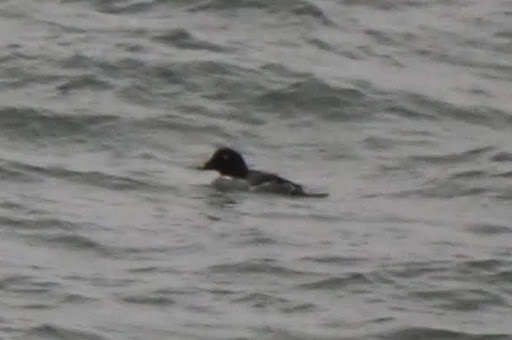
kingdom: Animalia
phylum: Chordata
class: Aves
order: Anseriformes
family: Anatidae
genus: Bucephala
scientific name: Bucephala clangula
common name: Common goldeneye
